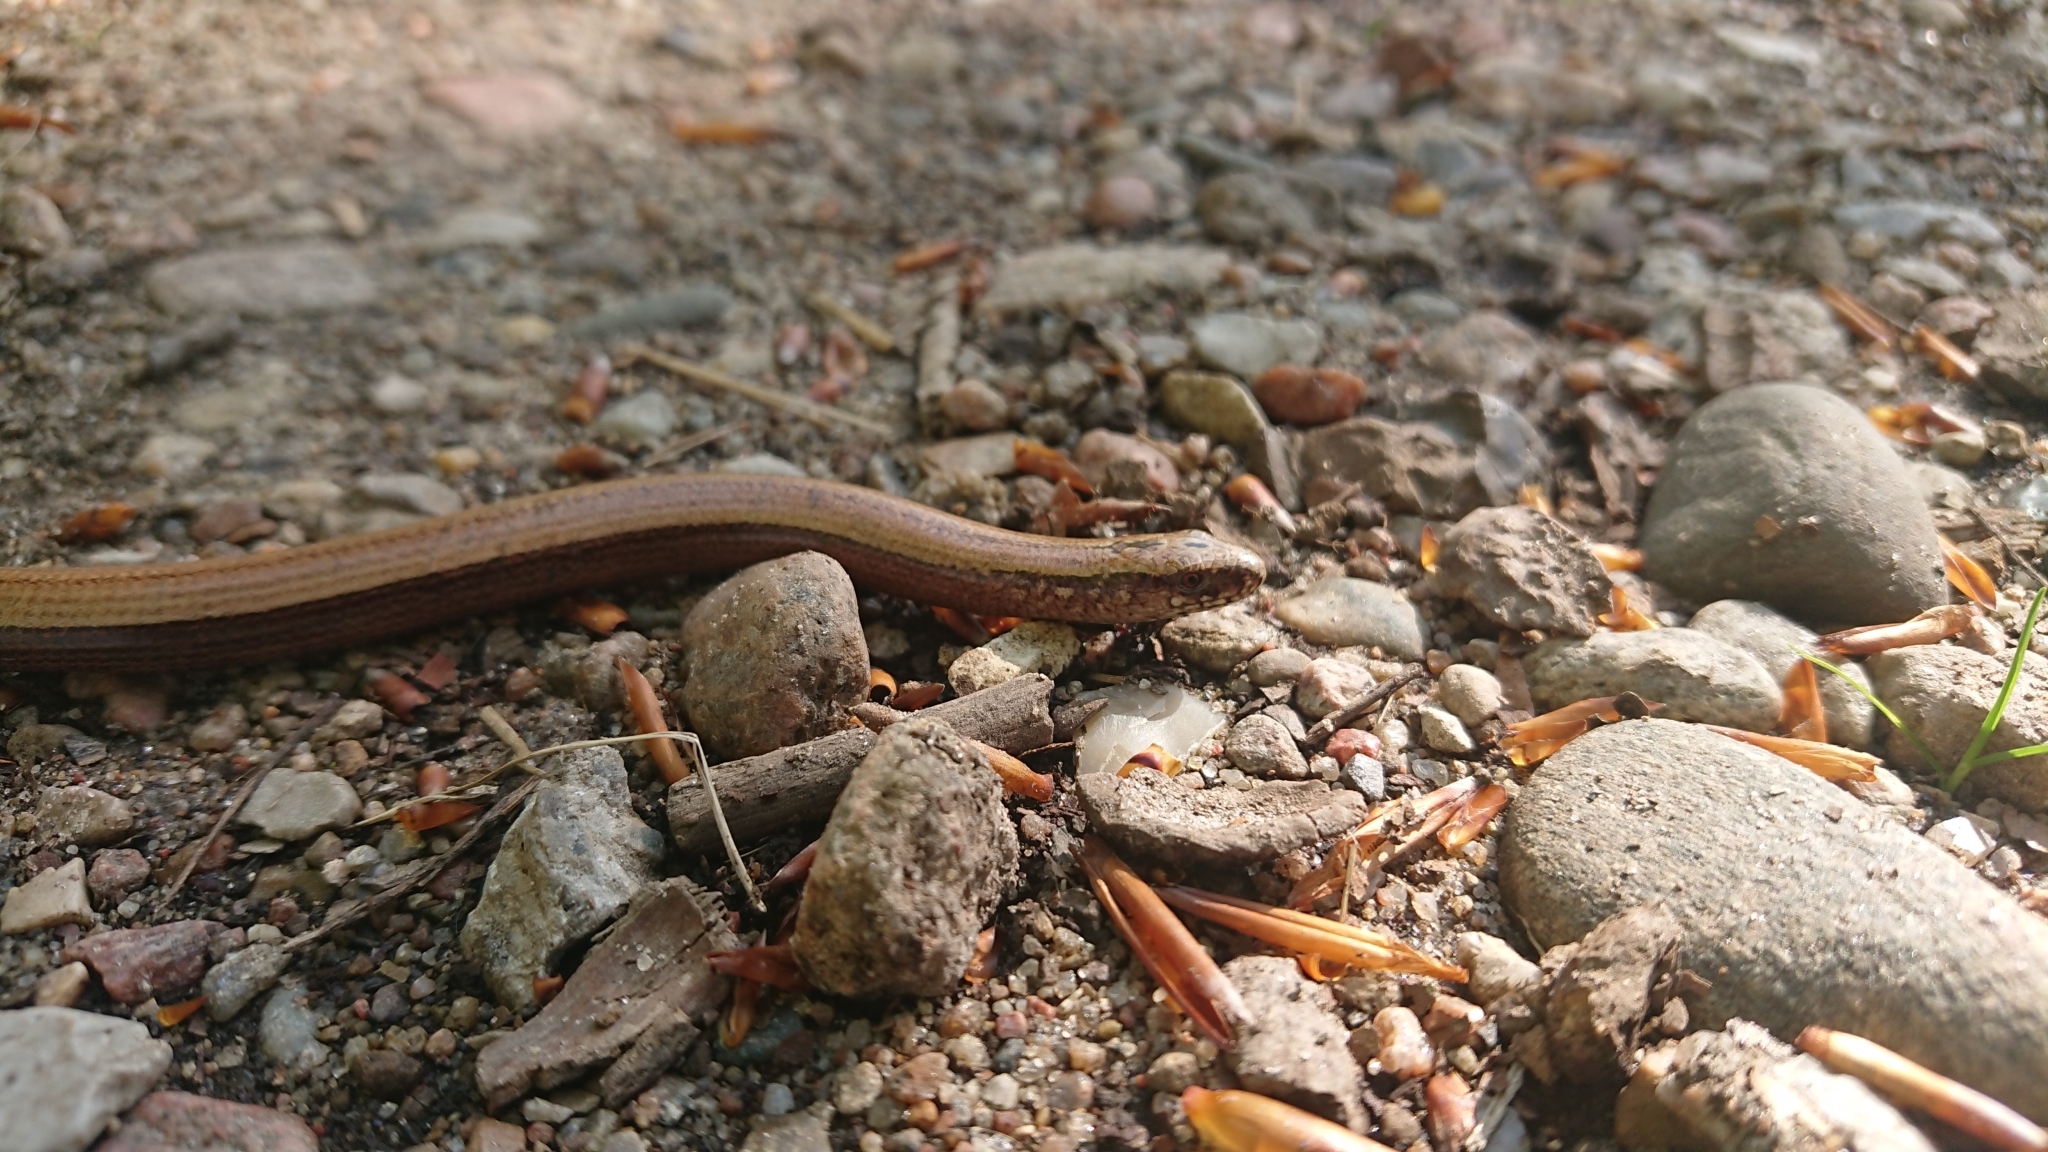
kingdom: Animalia
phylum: Chordata
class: Squamata
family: Anguidae
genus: Anguis
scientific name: Anguis fragilis
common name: Slow worm
